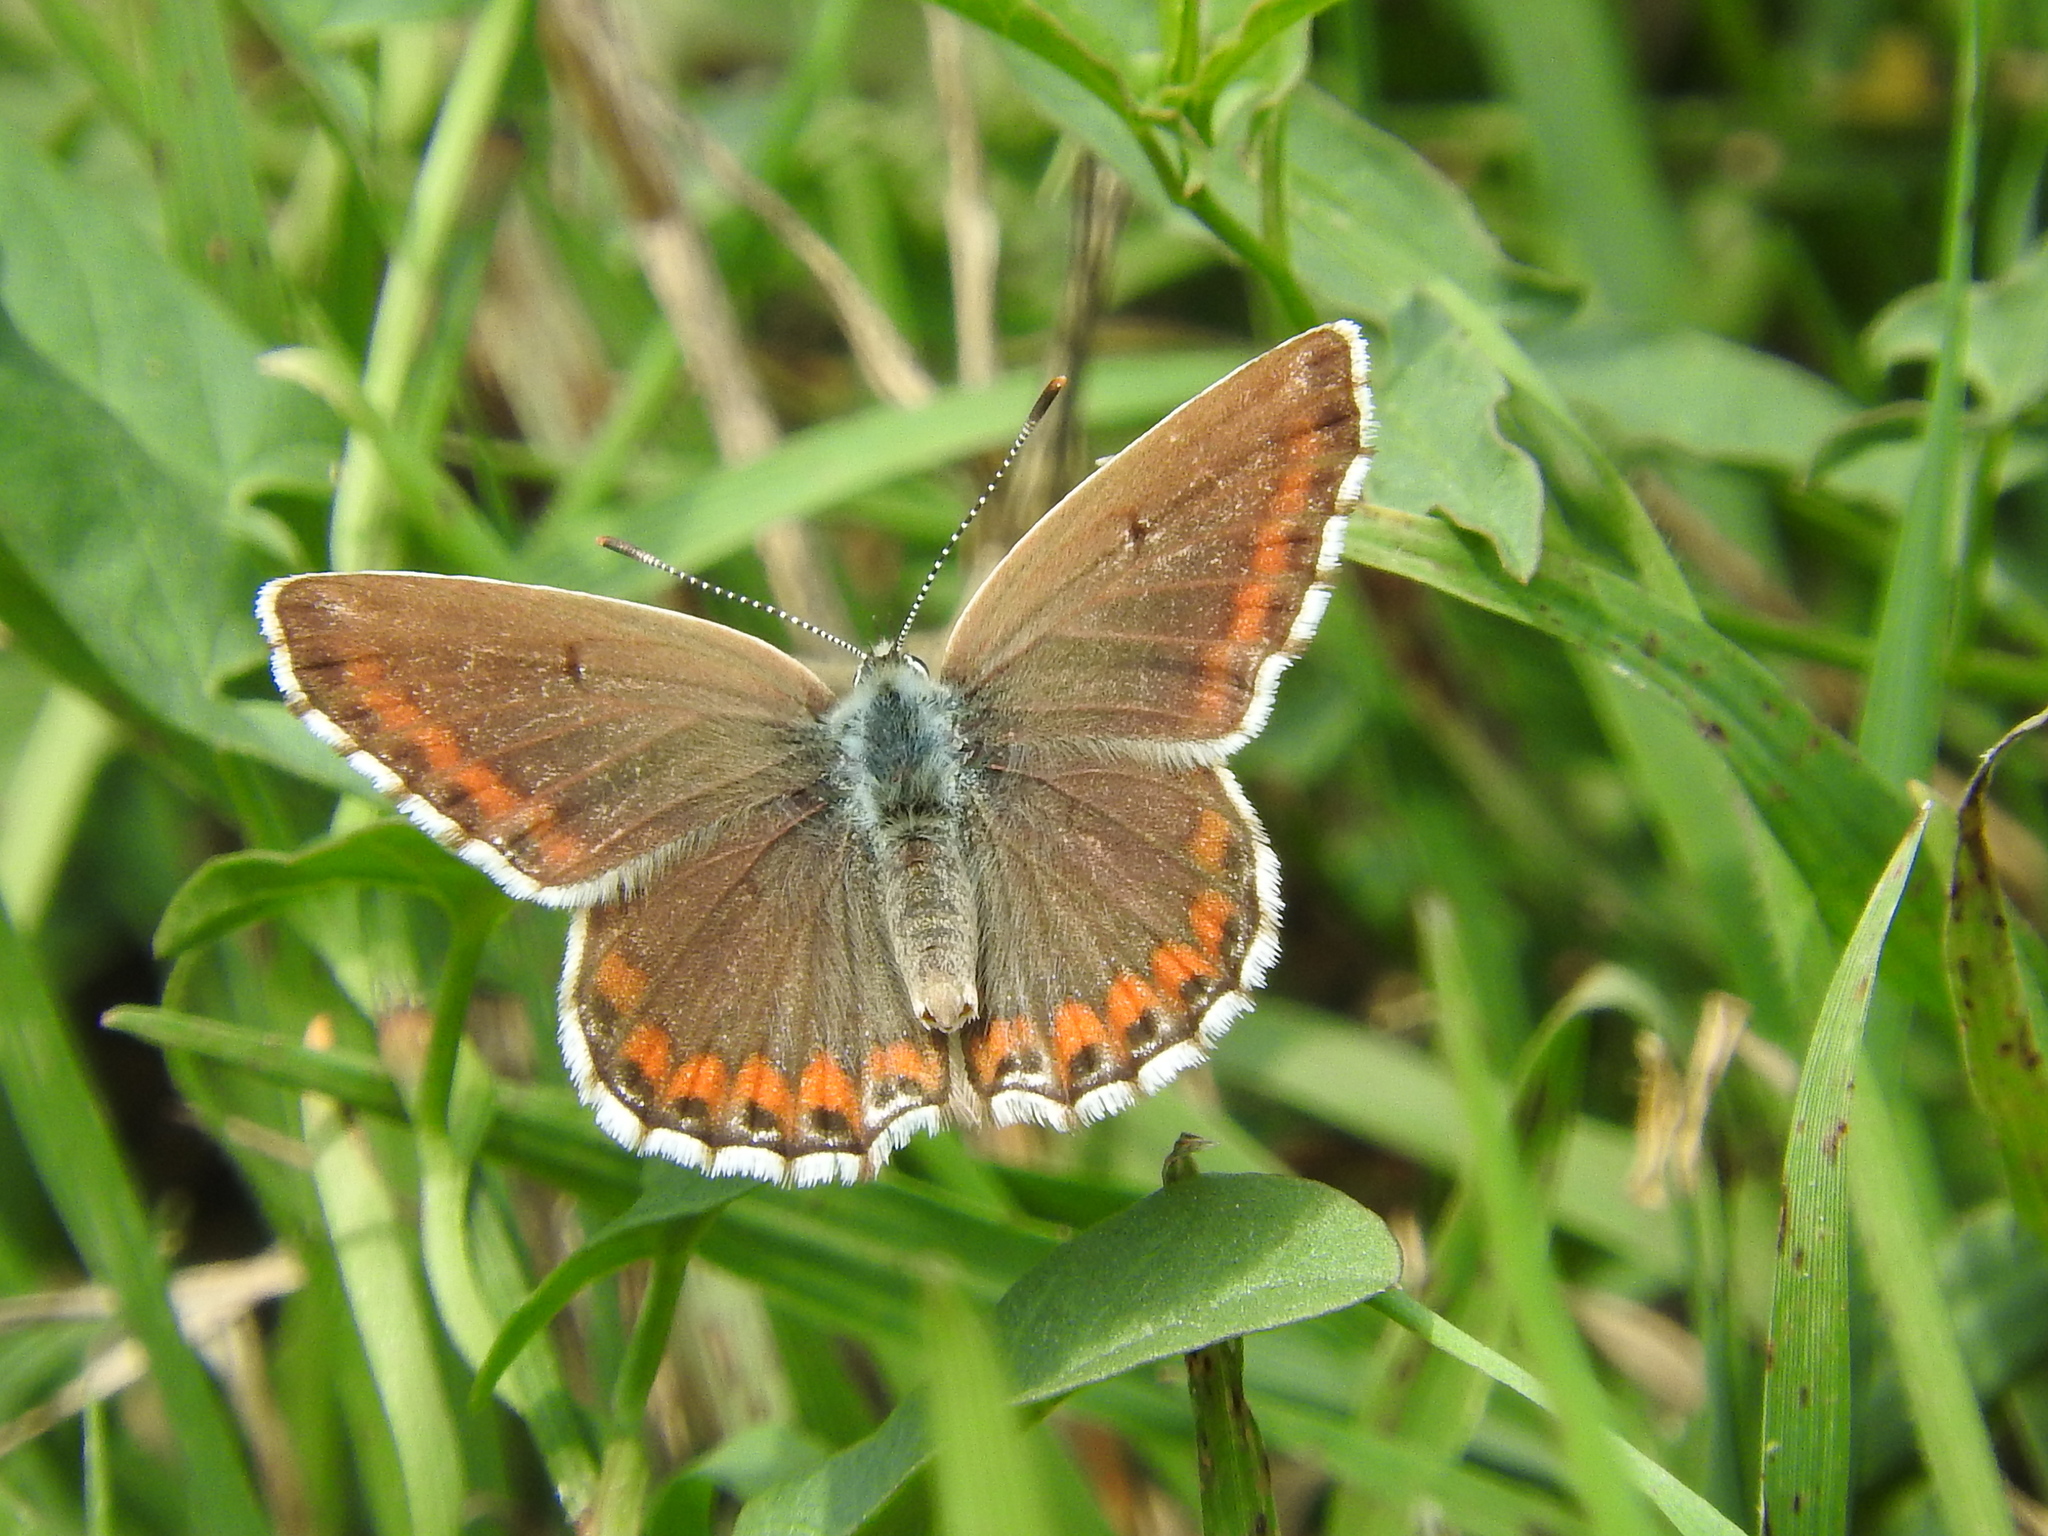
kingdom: Animalia
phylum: Arthropoda
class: Insecta
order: Lepidoptera
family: Lycaenidae
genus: Lysandra
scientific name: Lysandra bellargus
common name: Adonis blue
